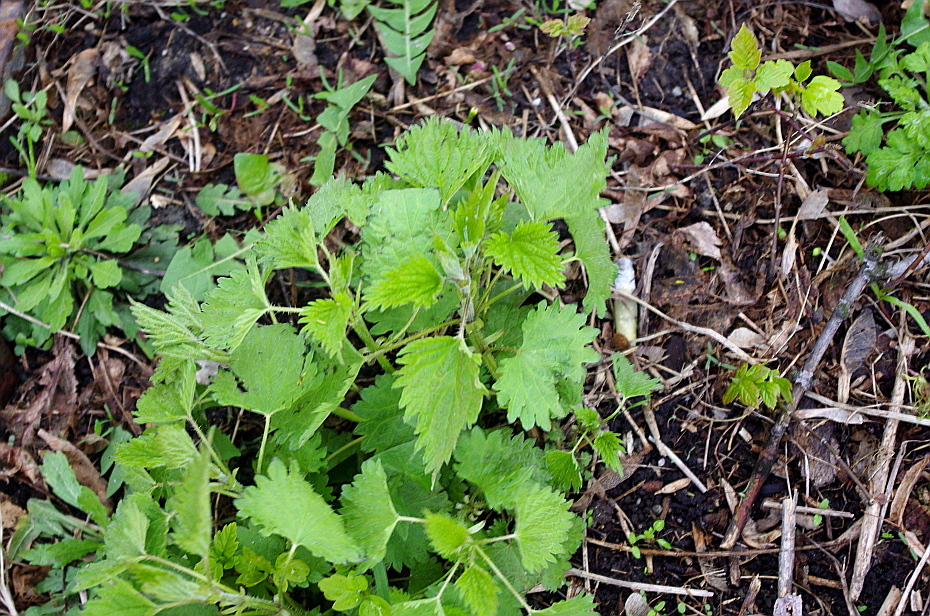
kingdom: Plantae
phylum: Tracheophyta
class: Magnoliopsida
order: Rosales
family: Urticaceae
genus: Urtica
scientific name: Urtica dioica
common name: Common nettle
